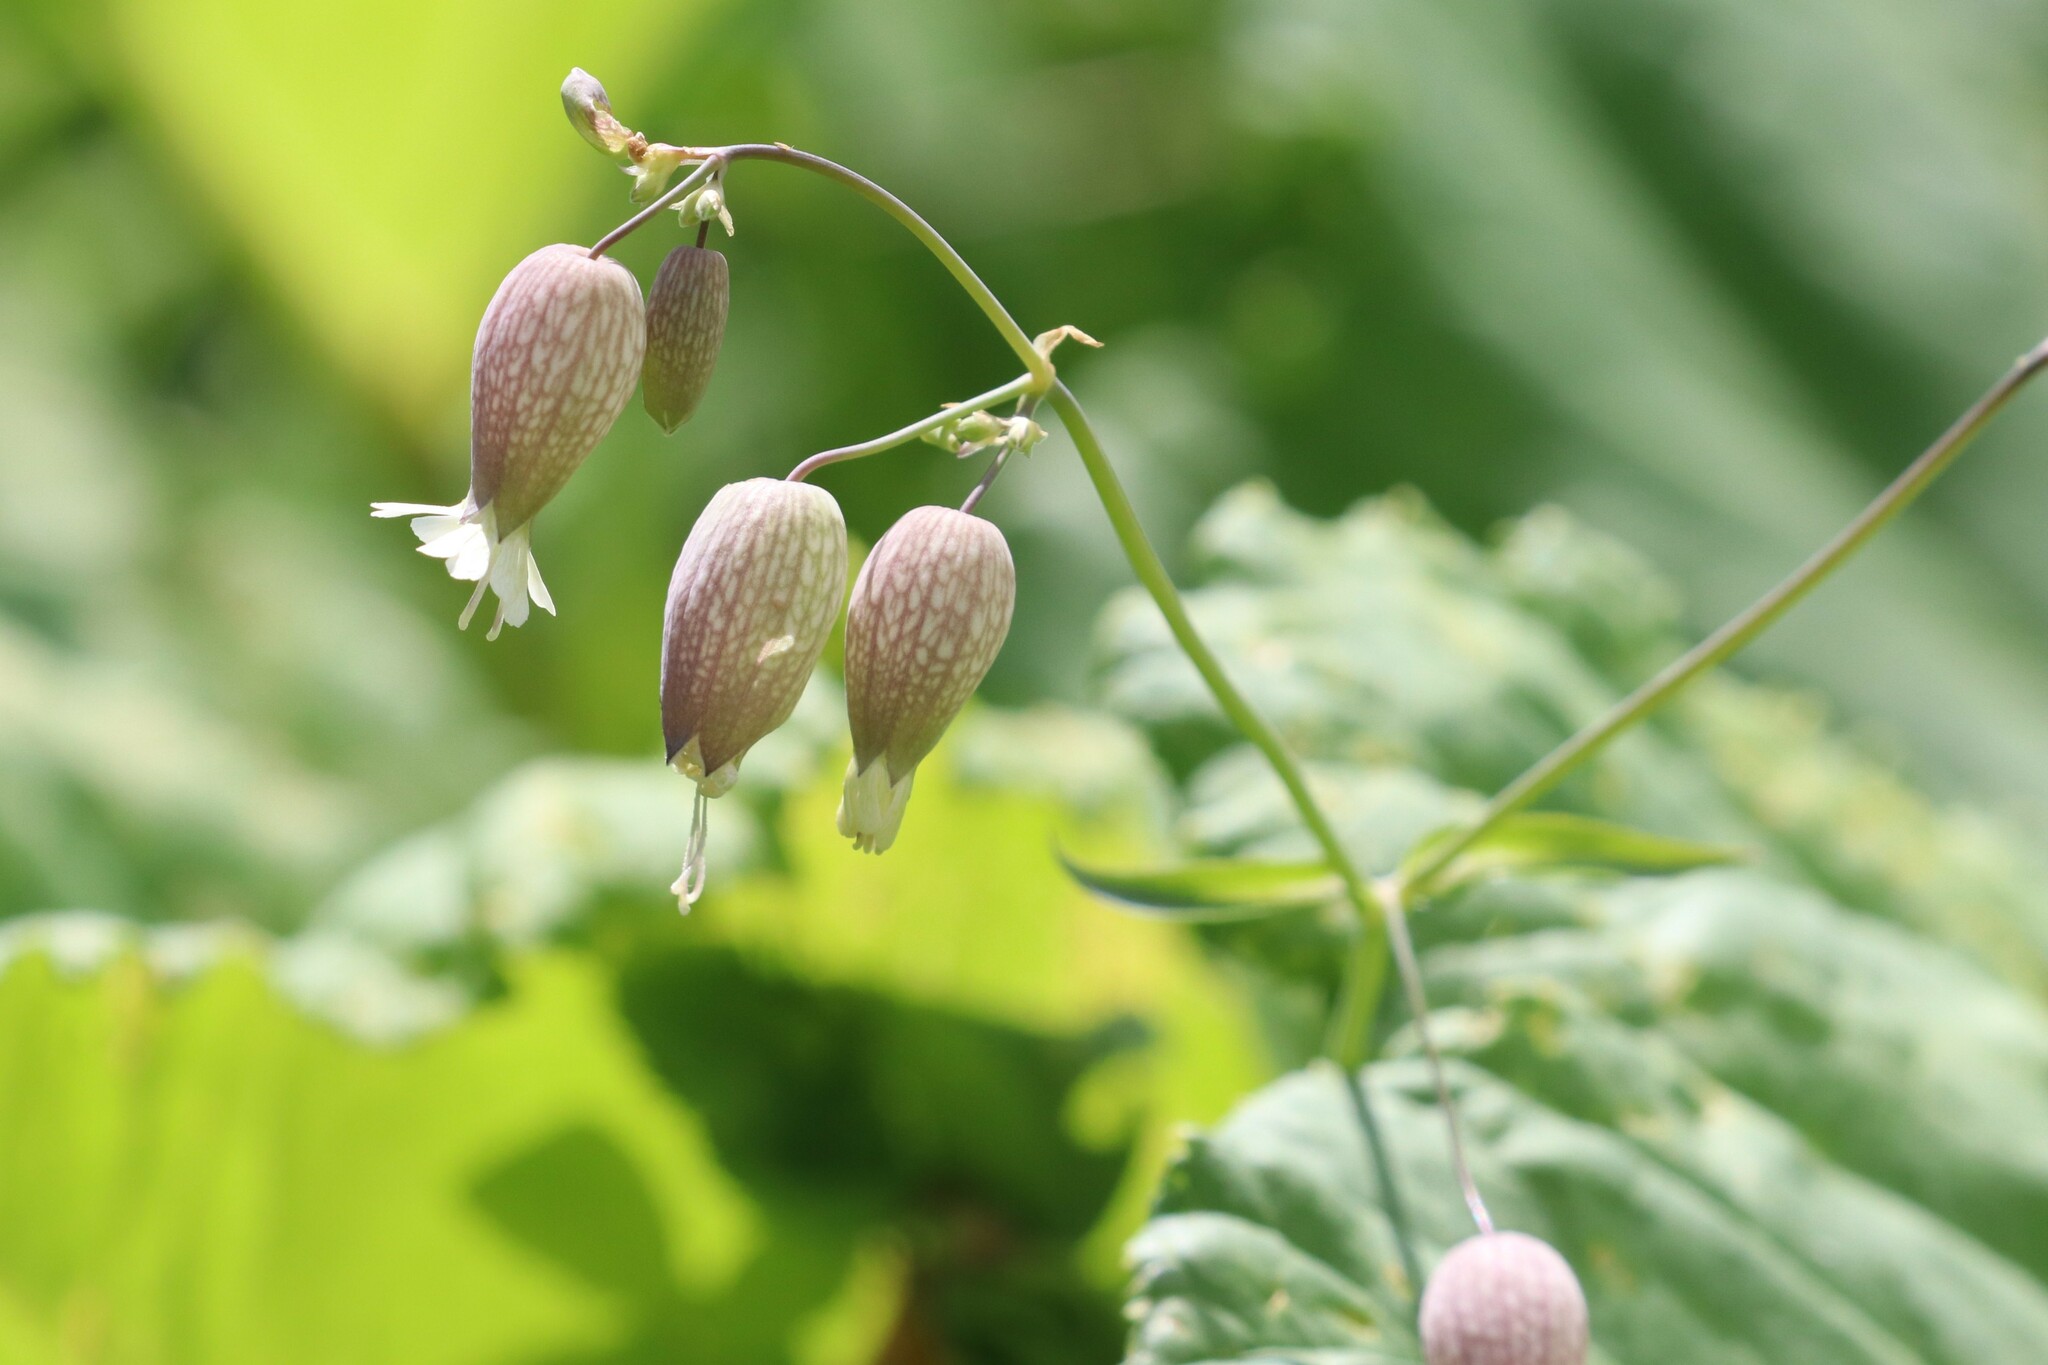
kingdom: Plantae
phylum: Tracheophyta
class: Magnoliopsida
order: Caryophyllales
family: Caryophyllaceae
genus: Silene
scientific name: Silene vulgaris
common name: Bladder campion
